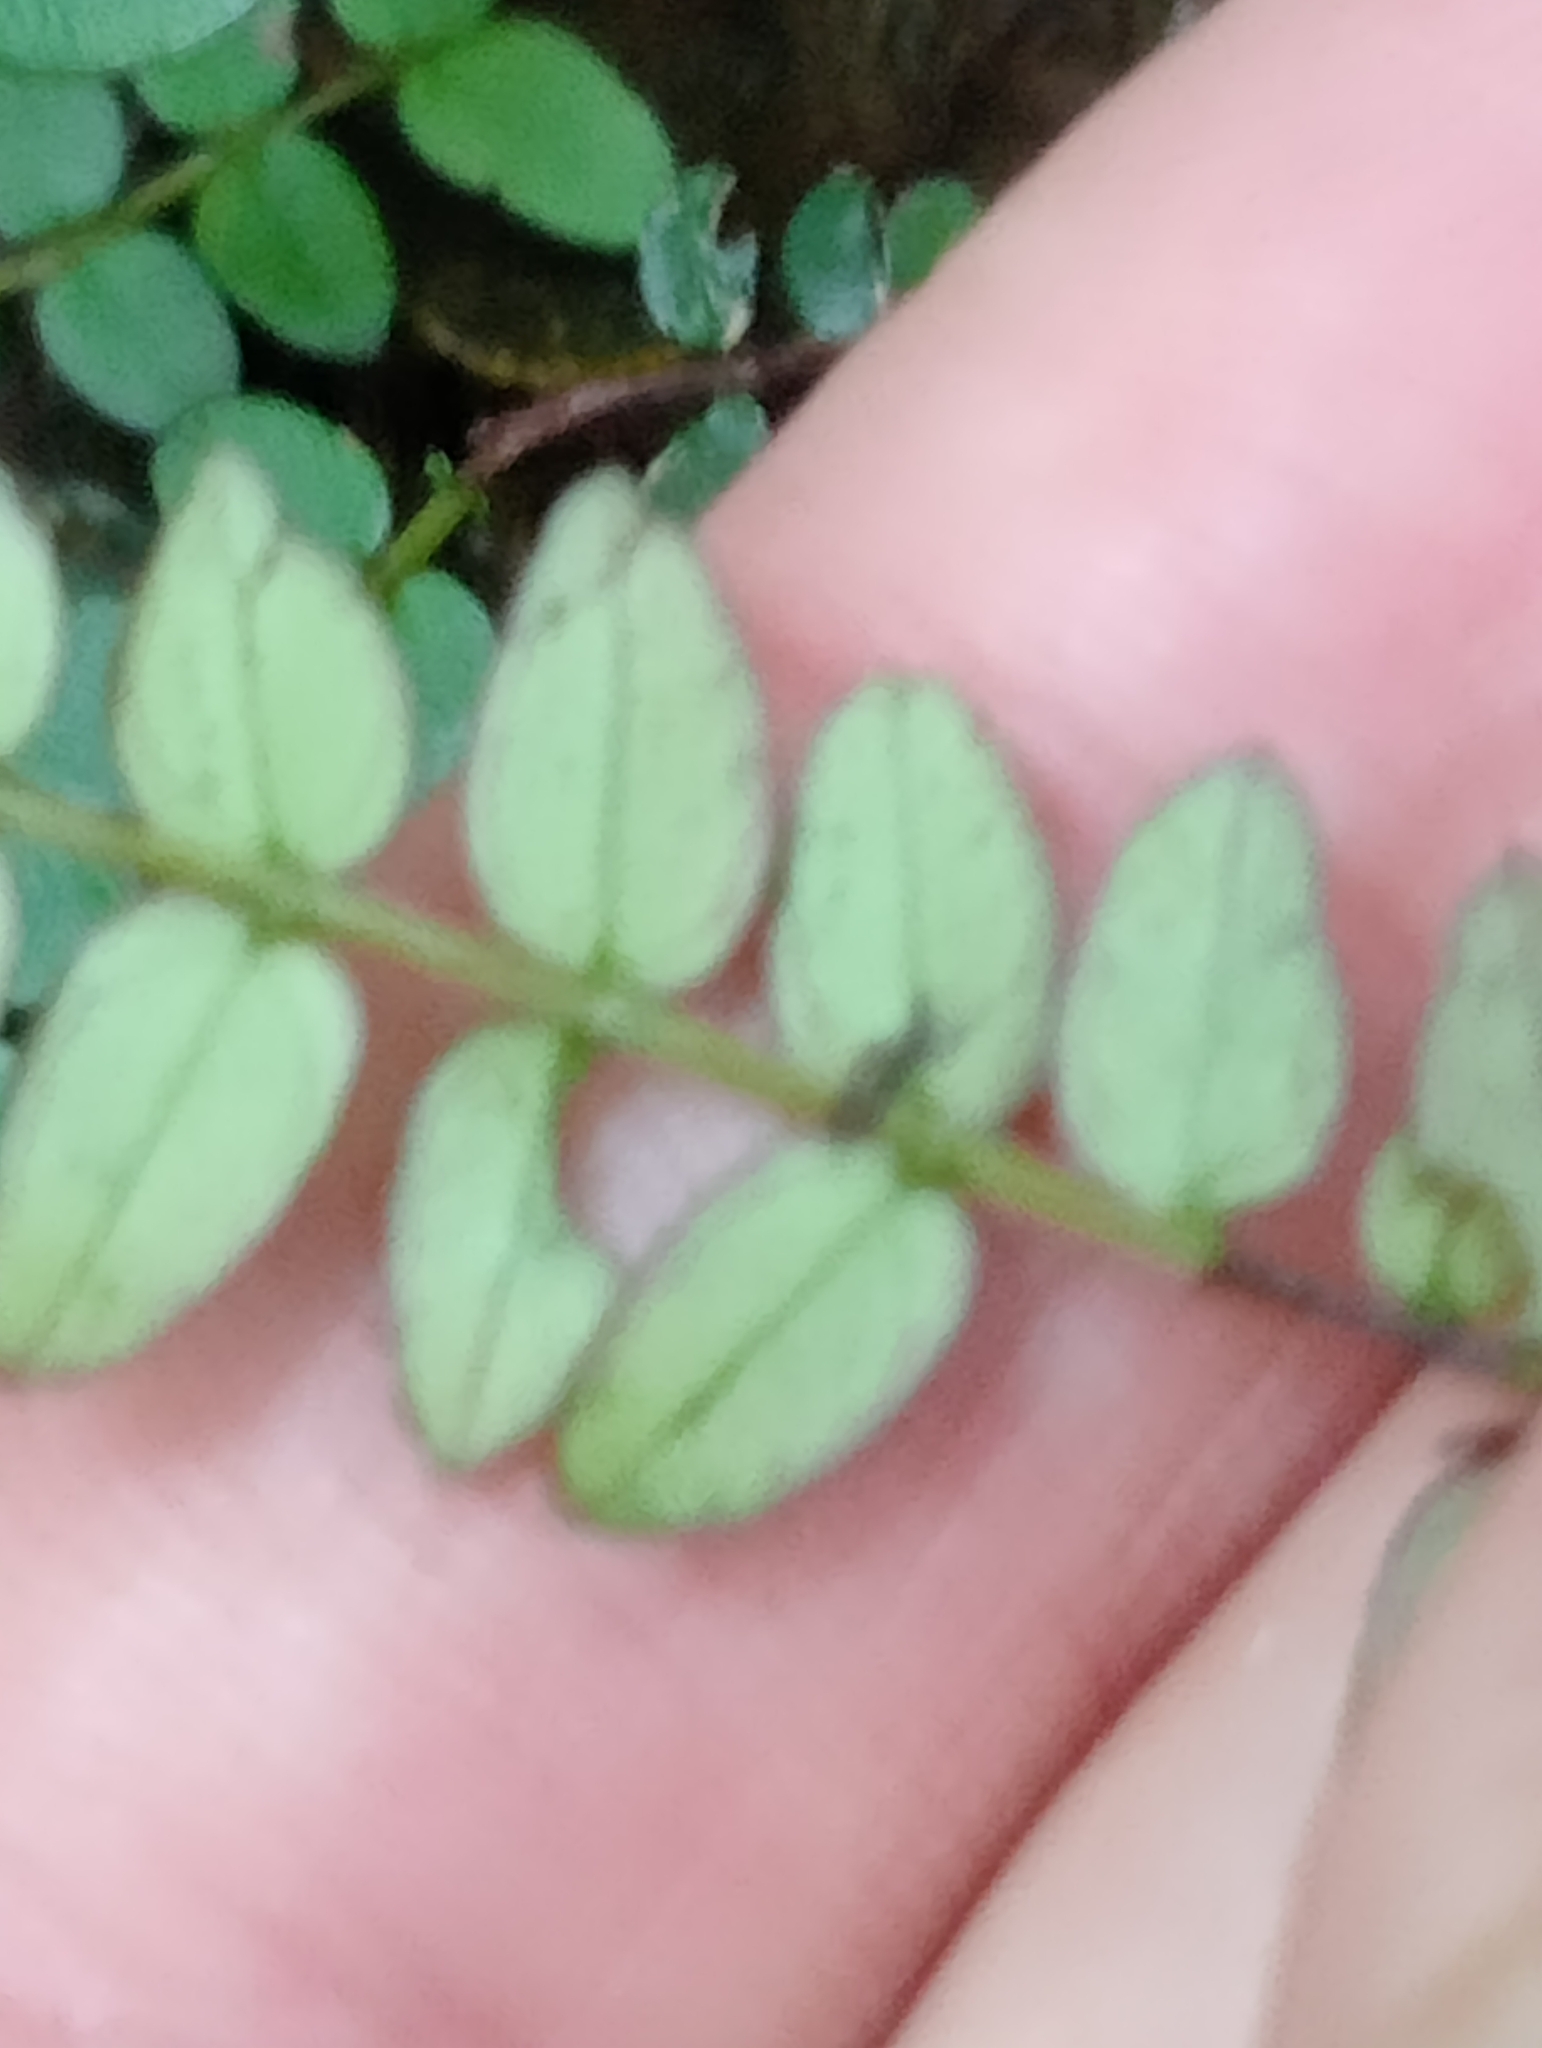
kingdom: Plantae
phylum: Tracheophyta
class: Magnoliopsida
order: Myrtales
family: Myrtaceae
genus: Metrosideros
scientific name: Metrosideros diffusa
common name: Small ratavine
